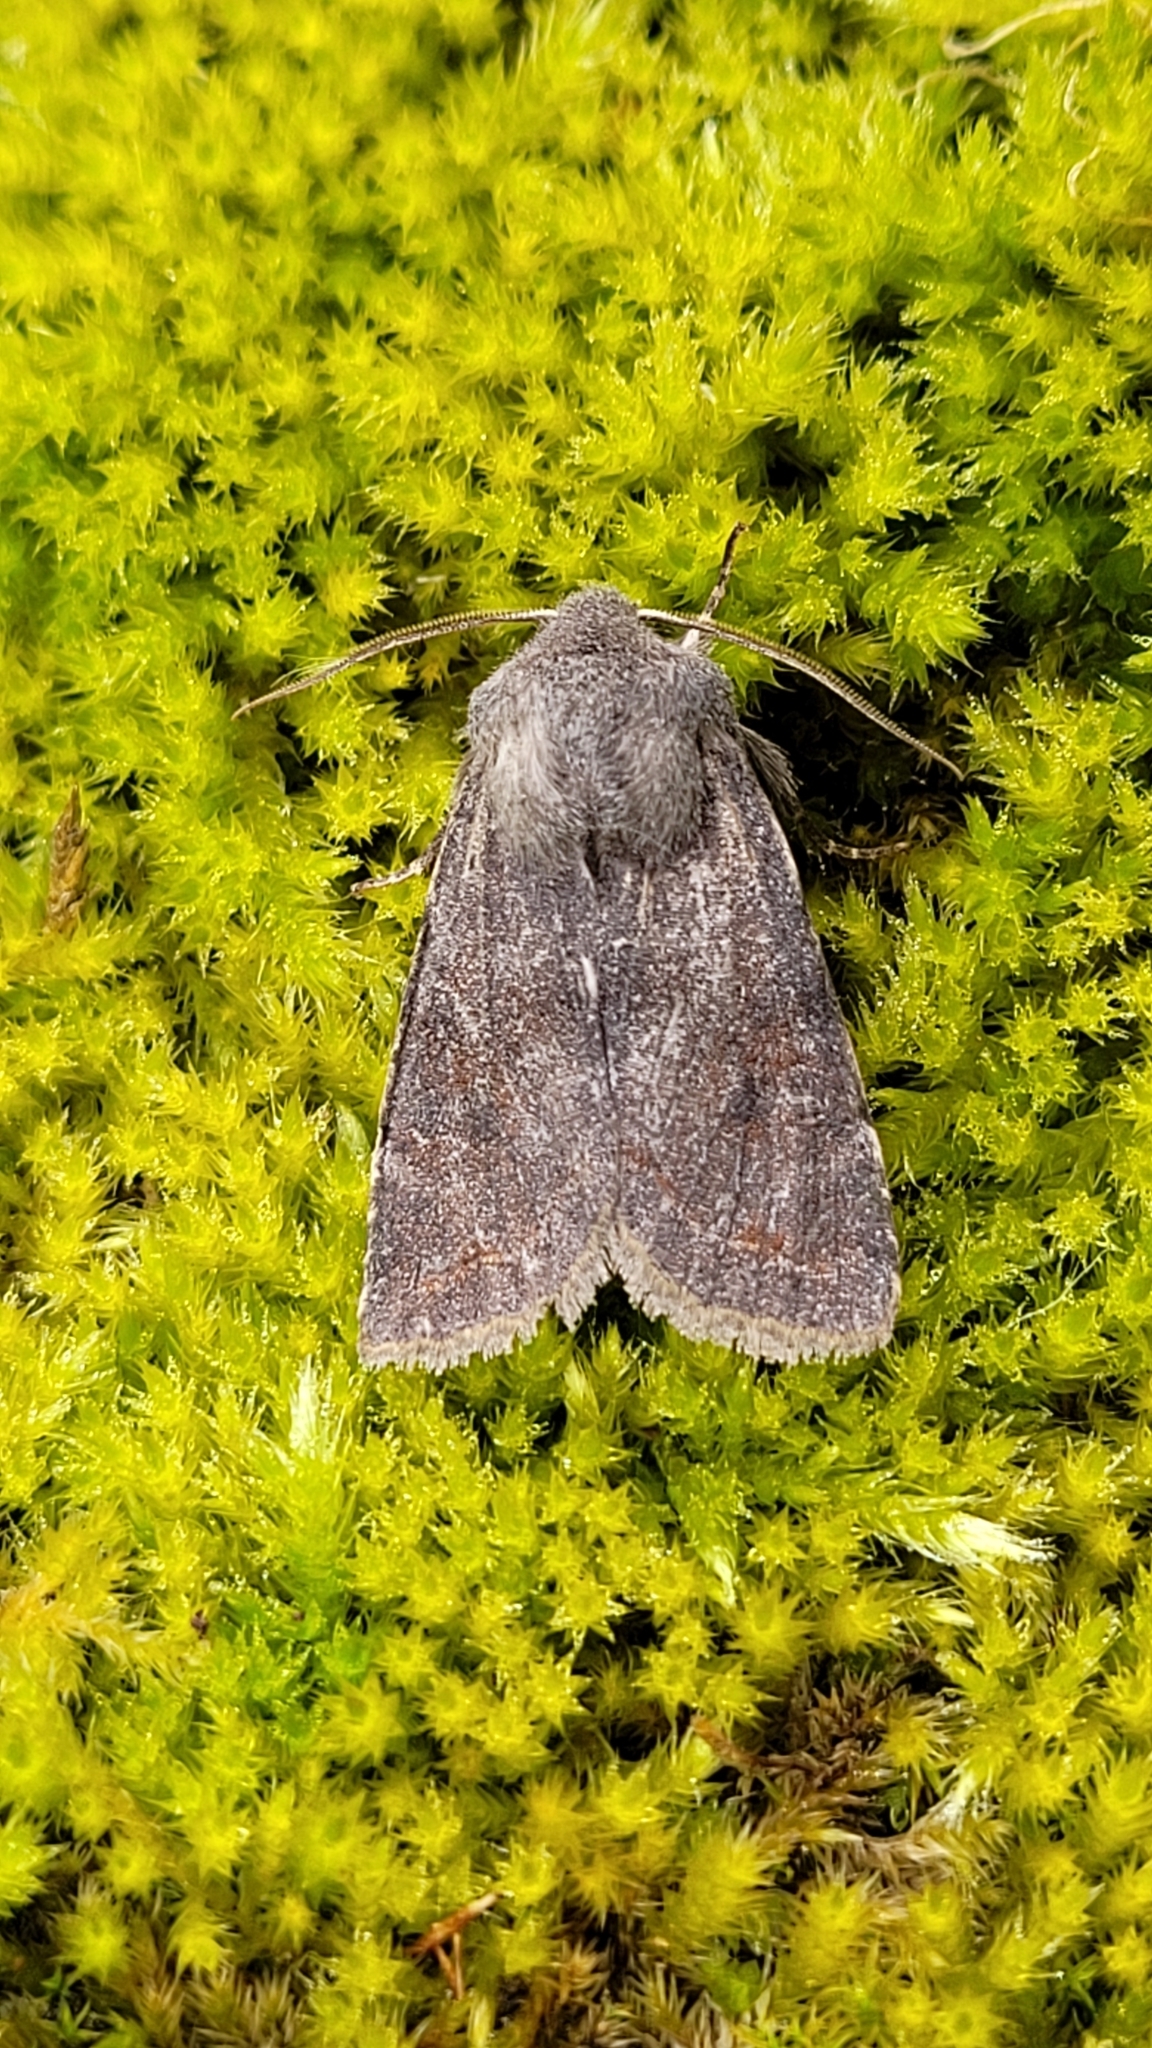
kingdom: Animalia
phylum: Arthropoda
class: Insecta
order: Lepidoptera
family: Noctuidae
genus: Orthosia
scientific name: Orthosia incerta
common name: Clouded drab
